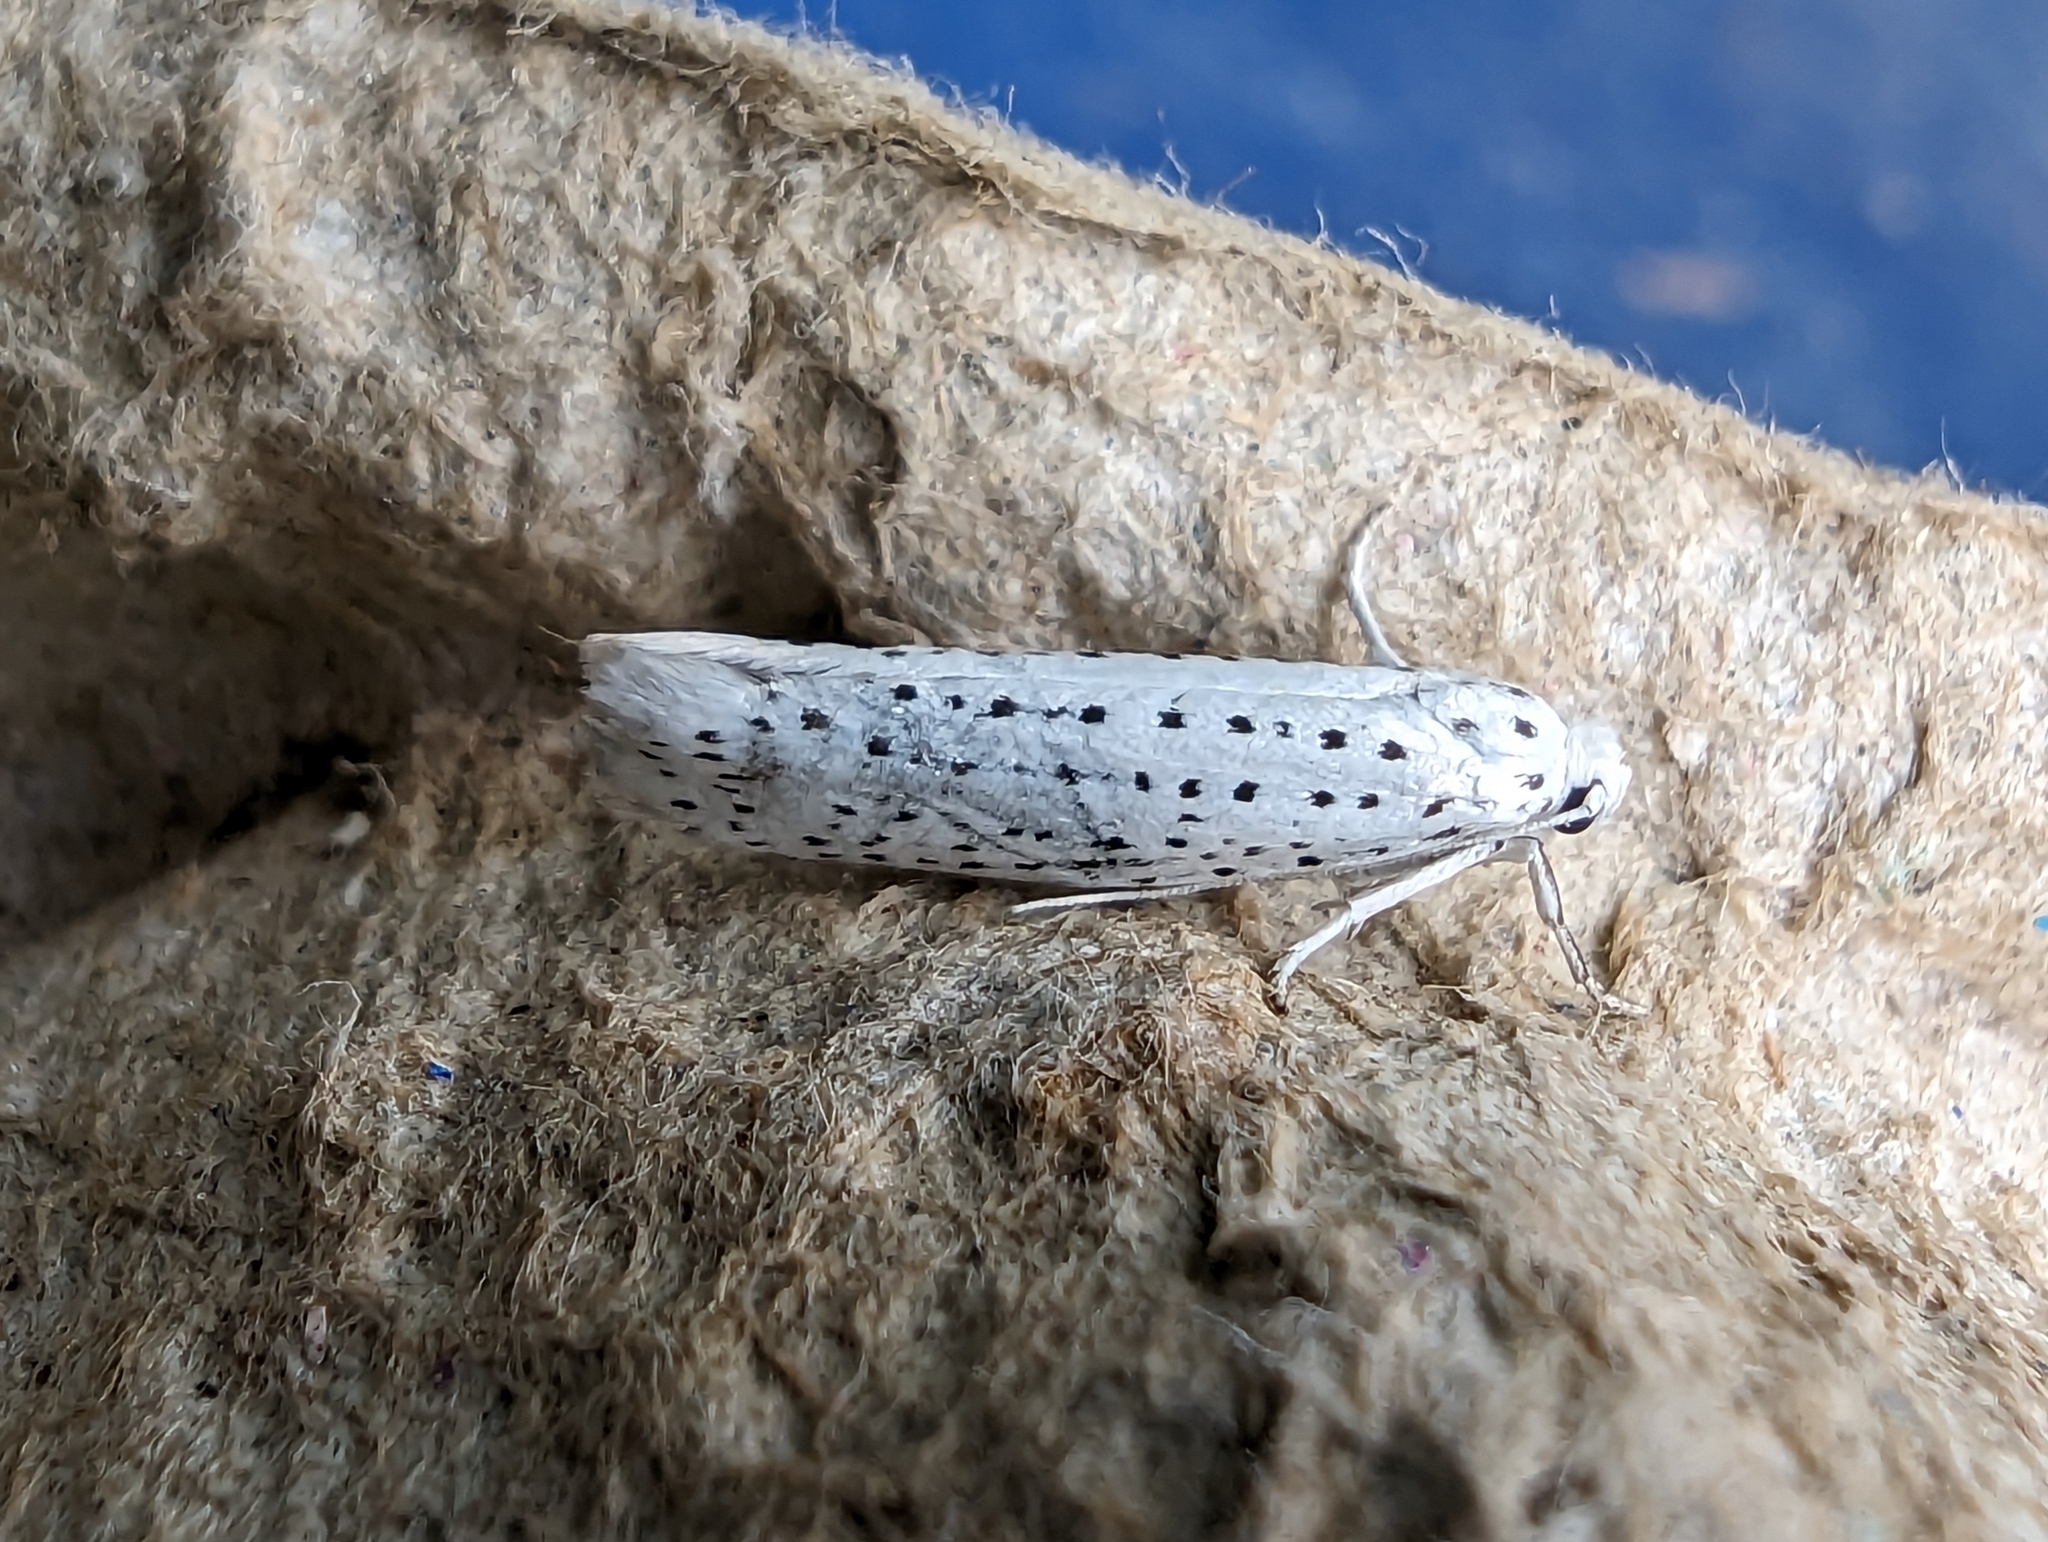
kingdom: Animalia
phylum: Arthropoda
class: Insecta
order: Lepidoptera
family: Yponomeutidae
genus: Yponomeuta
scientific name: Yponomeuta evonymella
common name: Bird-cherry ermine
